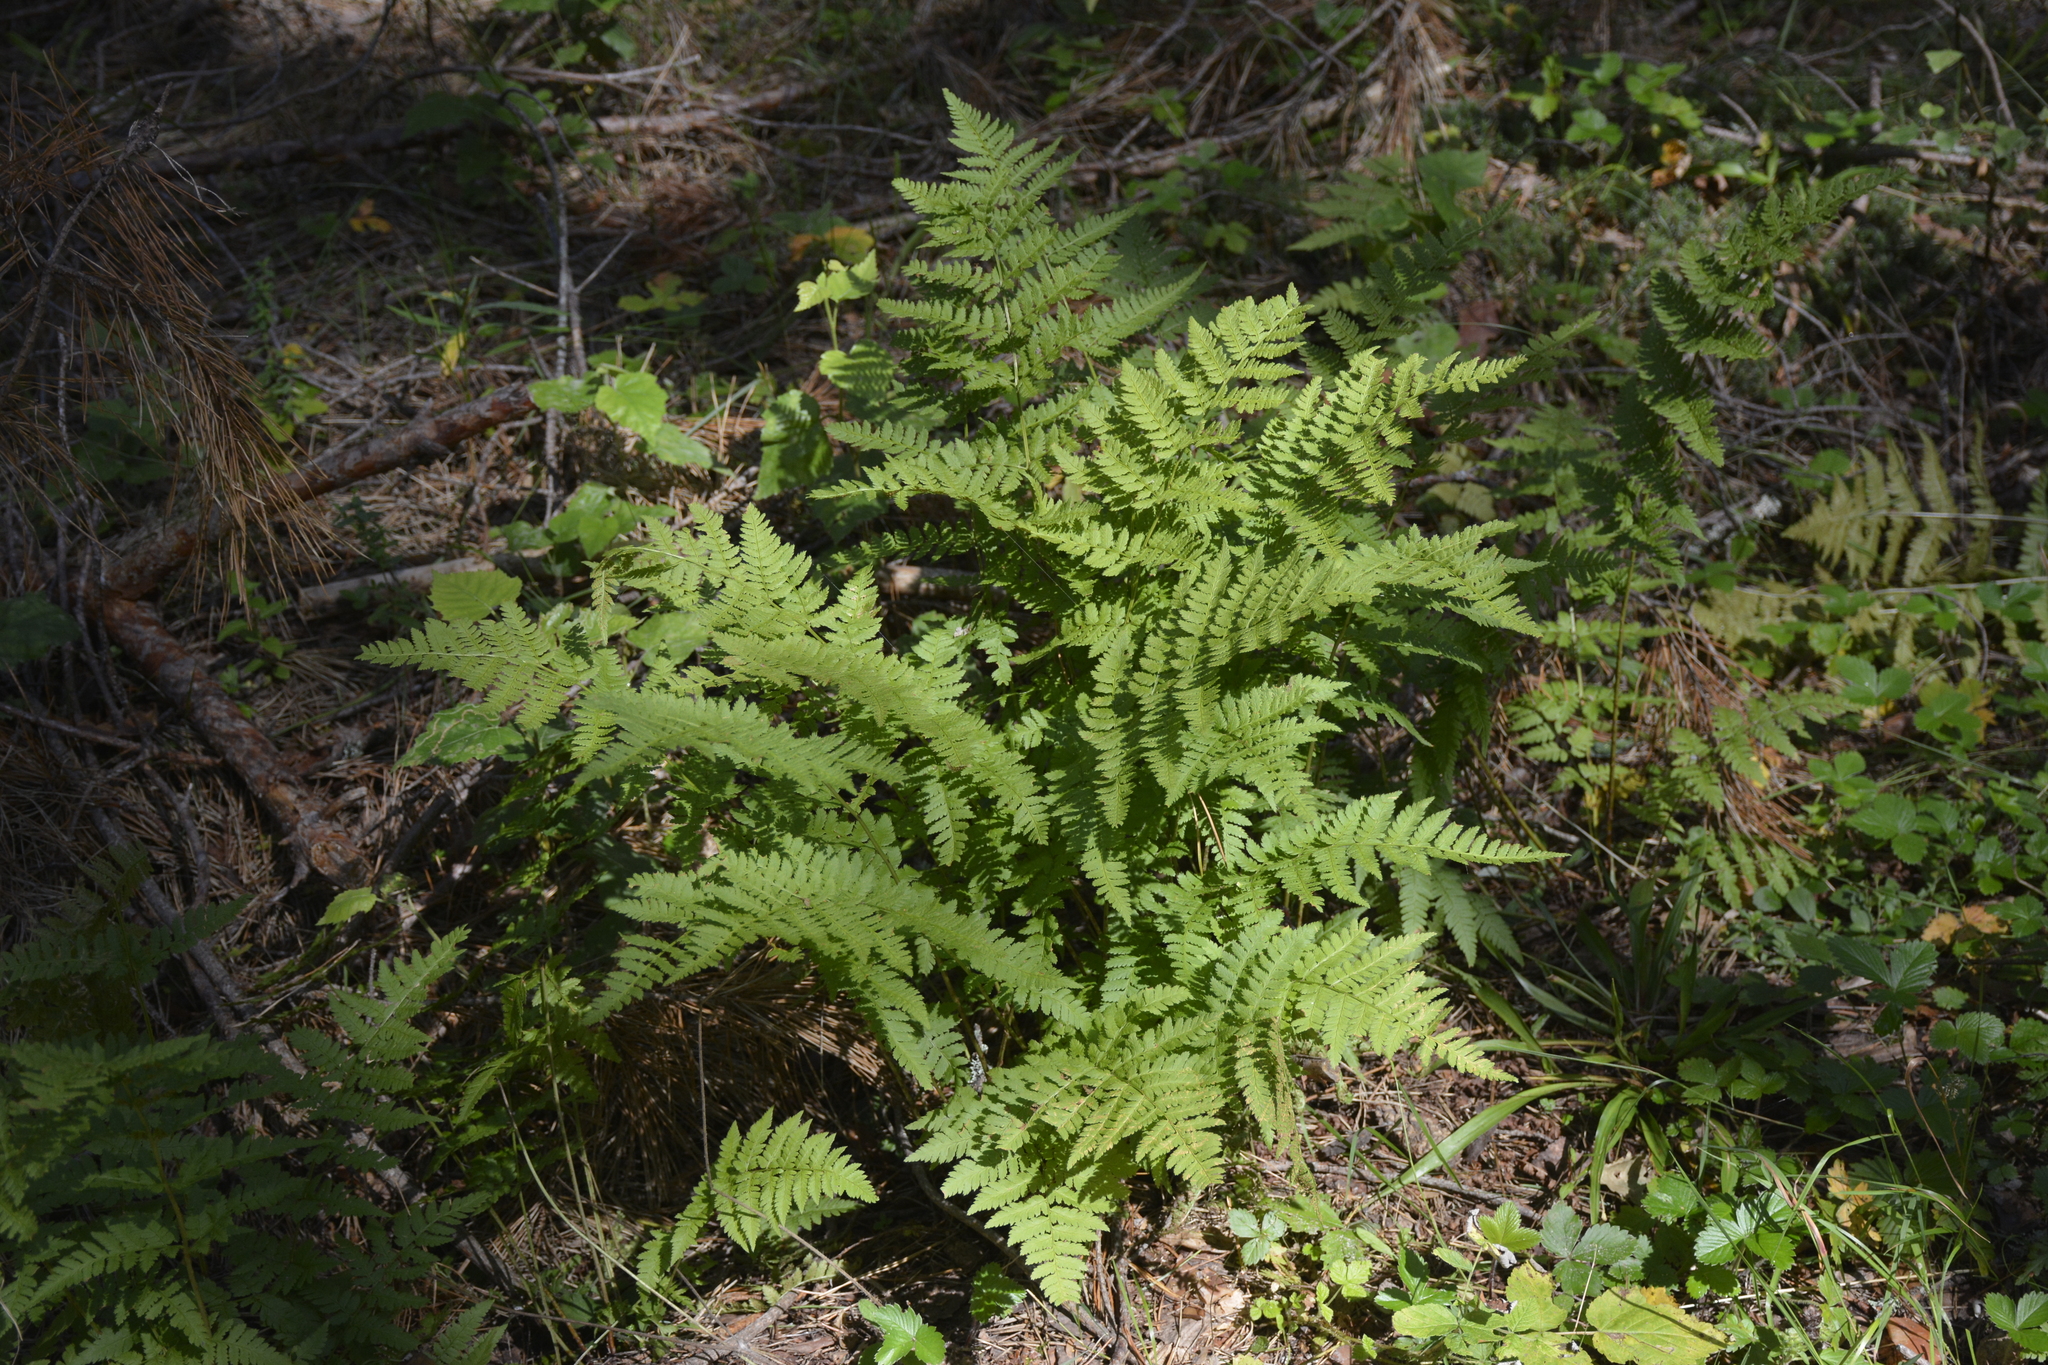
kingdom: Plantae
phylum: Tracheophyta
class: Polypodiopsida
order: Polypodiales
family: Dryopteridaceae
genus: Dryopteris
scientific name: Dryopteris carthusiana
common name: Narrow buckler-fern
